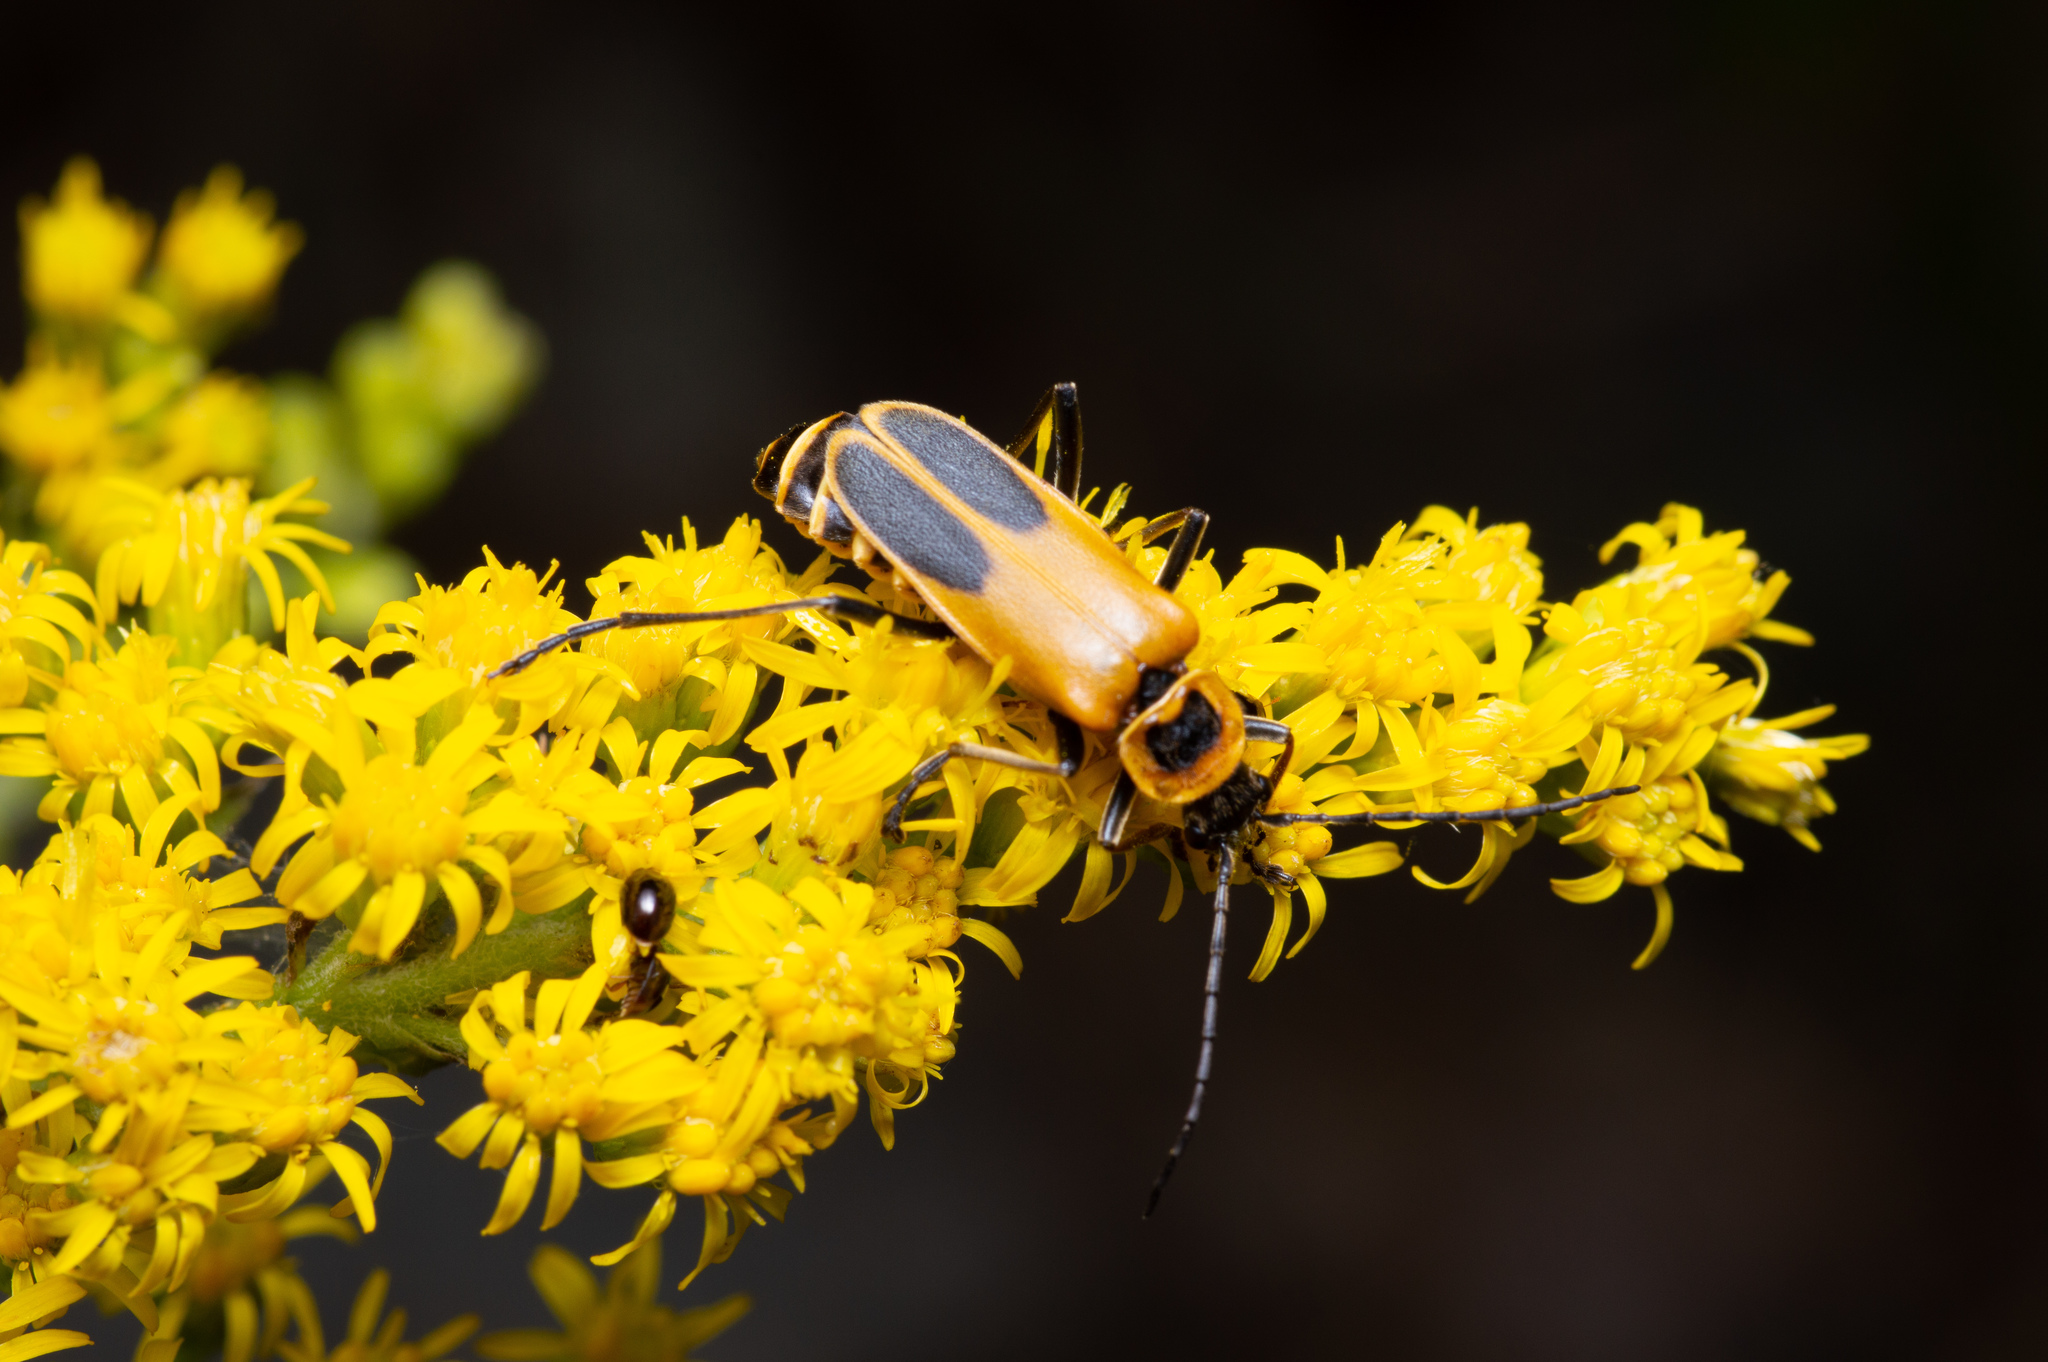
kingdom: Animalia
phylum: Arthropoda
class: Insecta
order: Coleoptera
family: Cantharidae
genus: Chauliognathus
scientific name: Chauliognathus pensylvanicus
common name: Goldenrod soldier beetle
